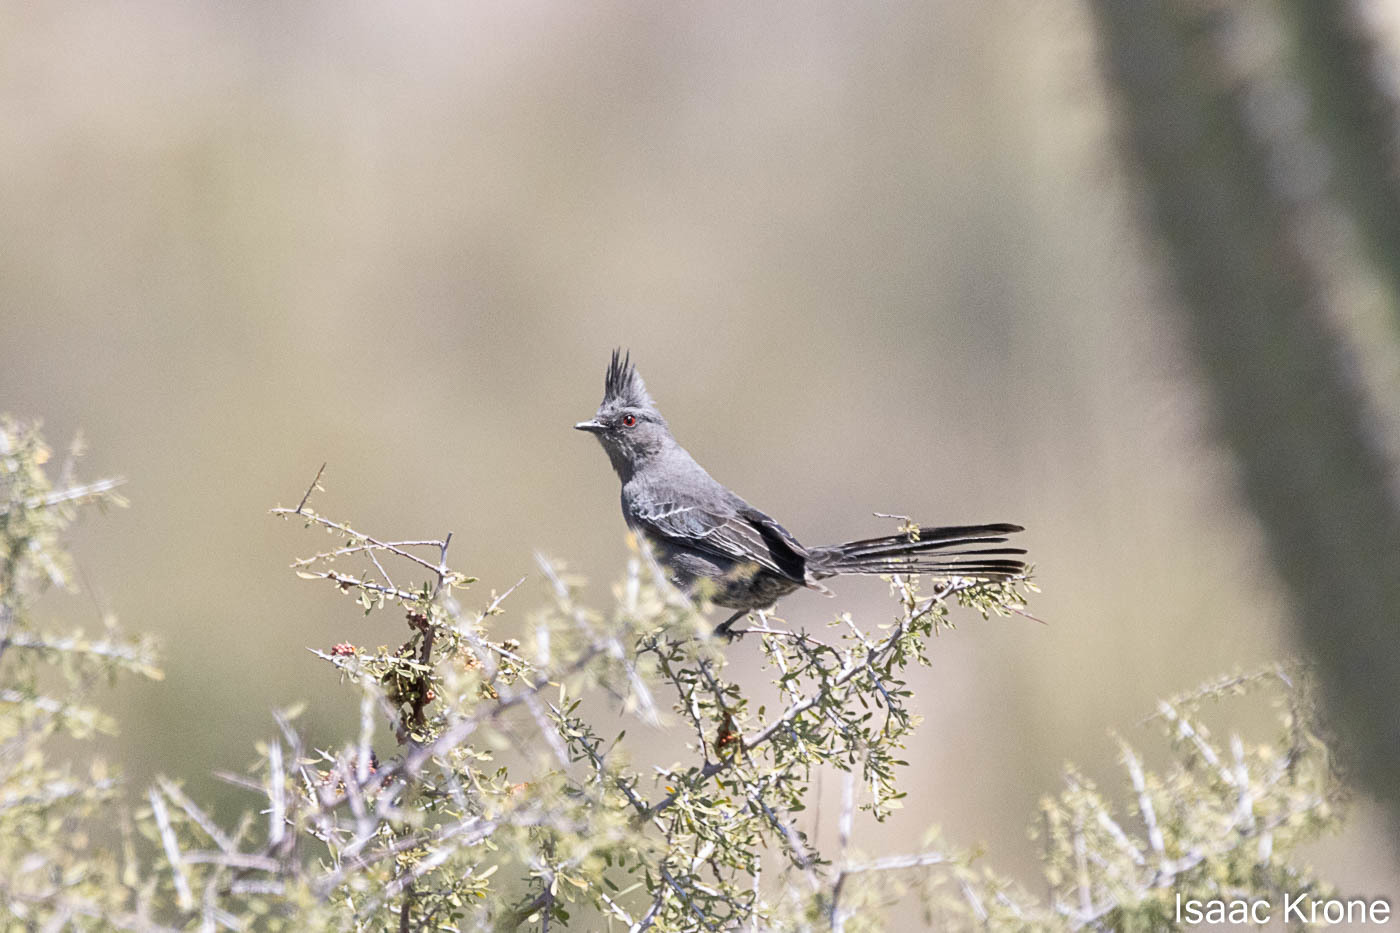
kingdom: Animalia
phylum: Chordata
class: Aves
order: Passeriformes
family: Ptilogonatidae
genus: Phainopepla
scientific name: Phainopepla nitens
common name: Phainopepla
